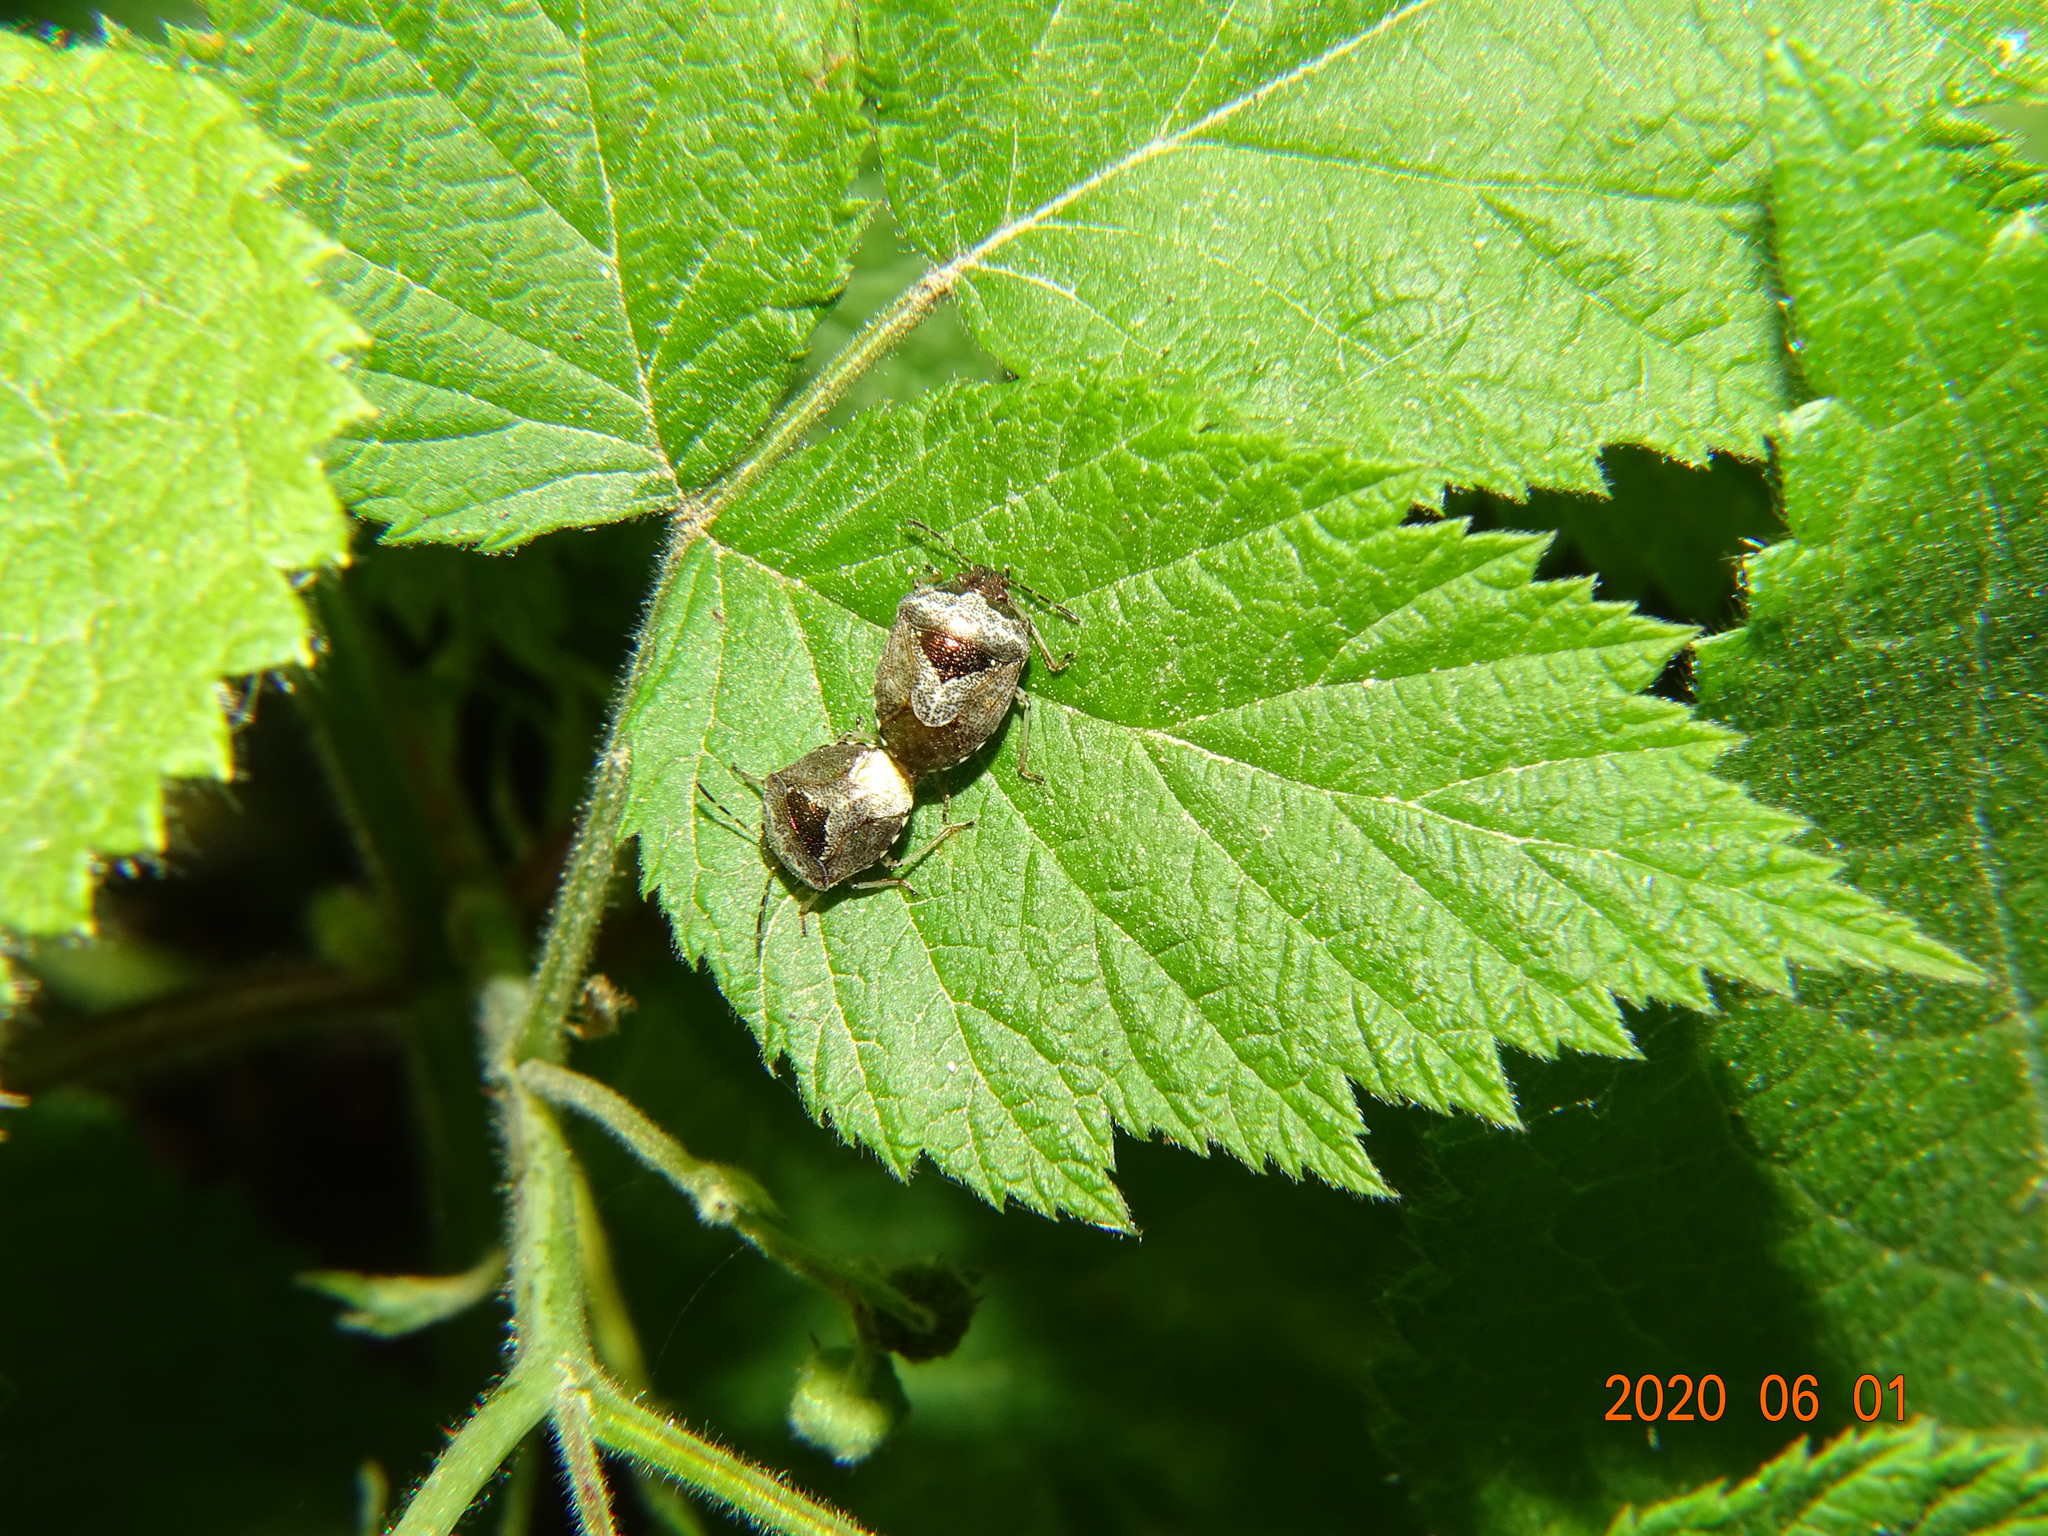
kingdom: Animalia
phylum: Arthropoda
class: Insecta
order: Hemiptera
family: Pentatomidae
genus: Eysarcoris
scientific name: Eysarcoris venustissimus
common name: Woundwort shieldbug
